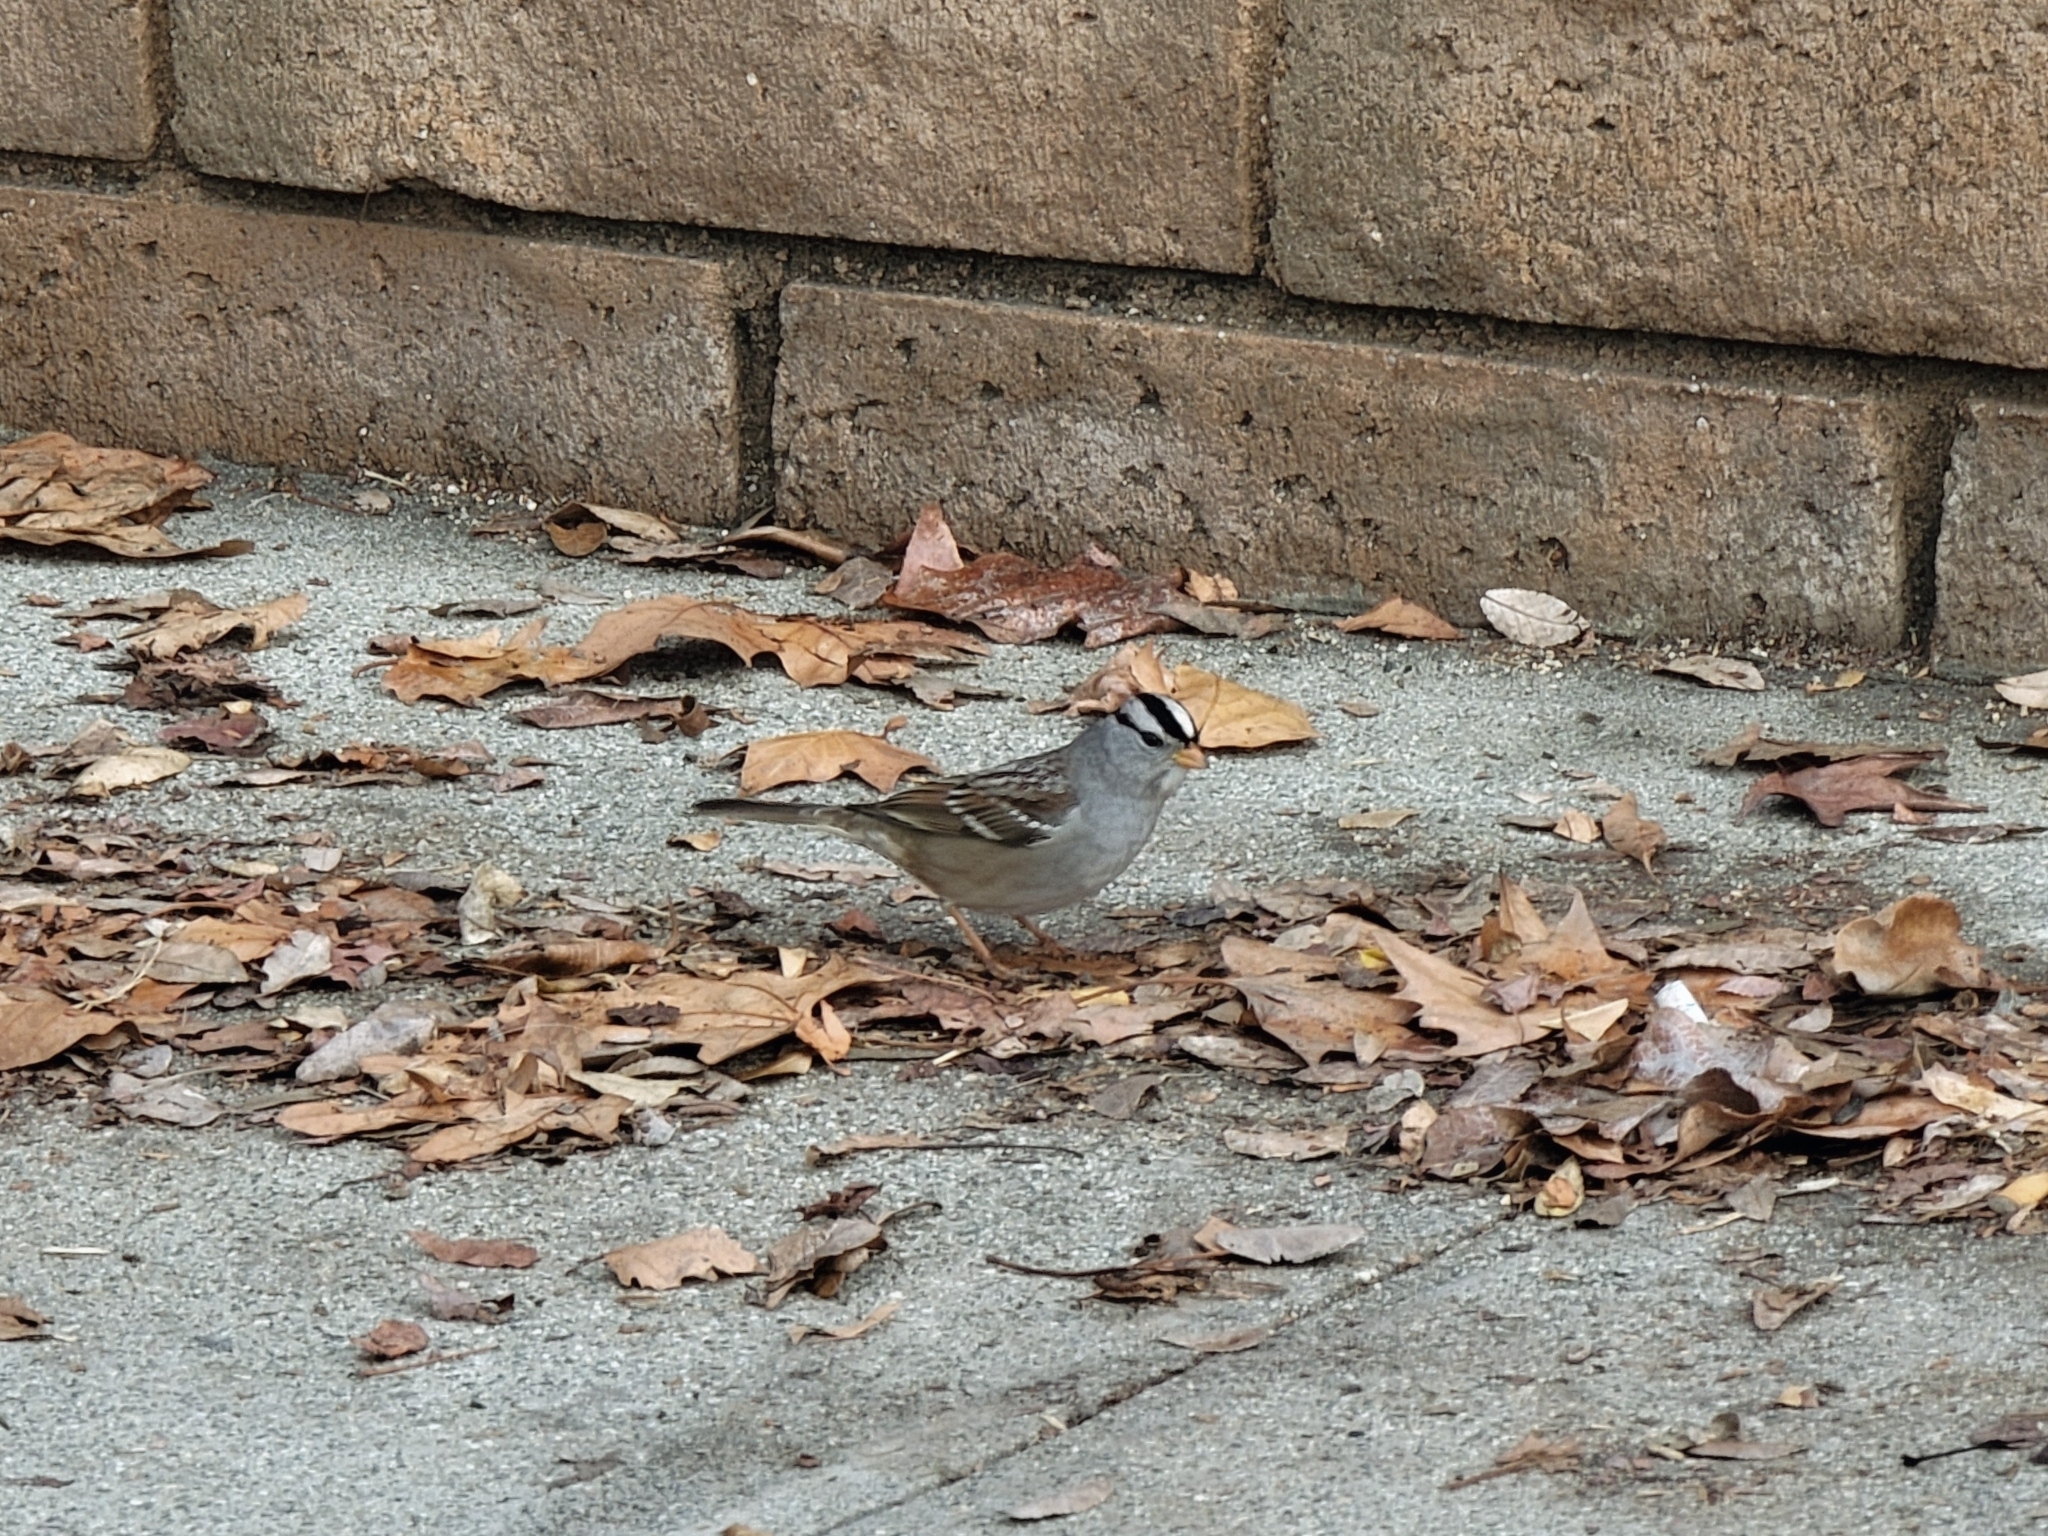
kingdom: Animalia
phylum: Chordata
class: Aves
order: Passeriformes
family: Passerellidae
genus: Zonotrichia
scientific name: Zonotrichia leucophrys
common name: White-crowned sparrow
